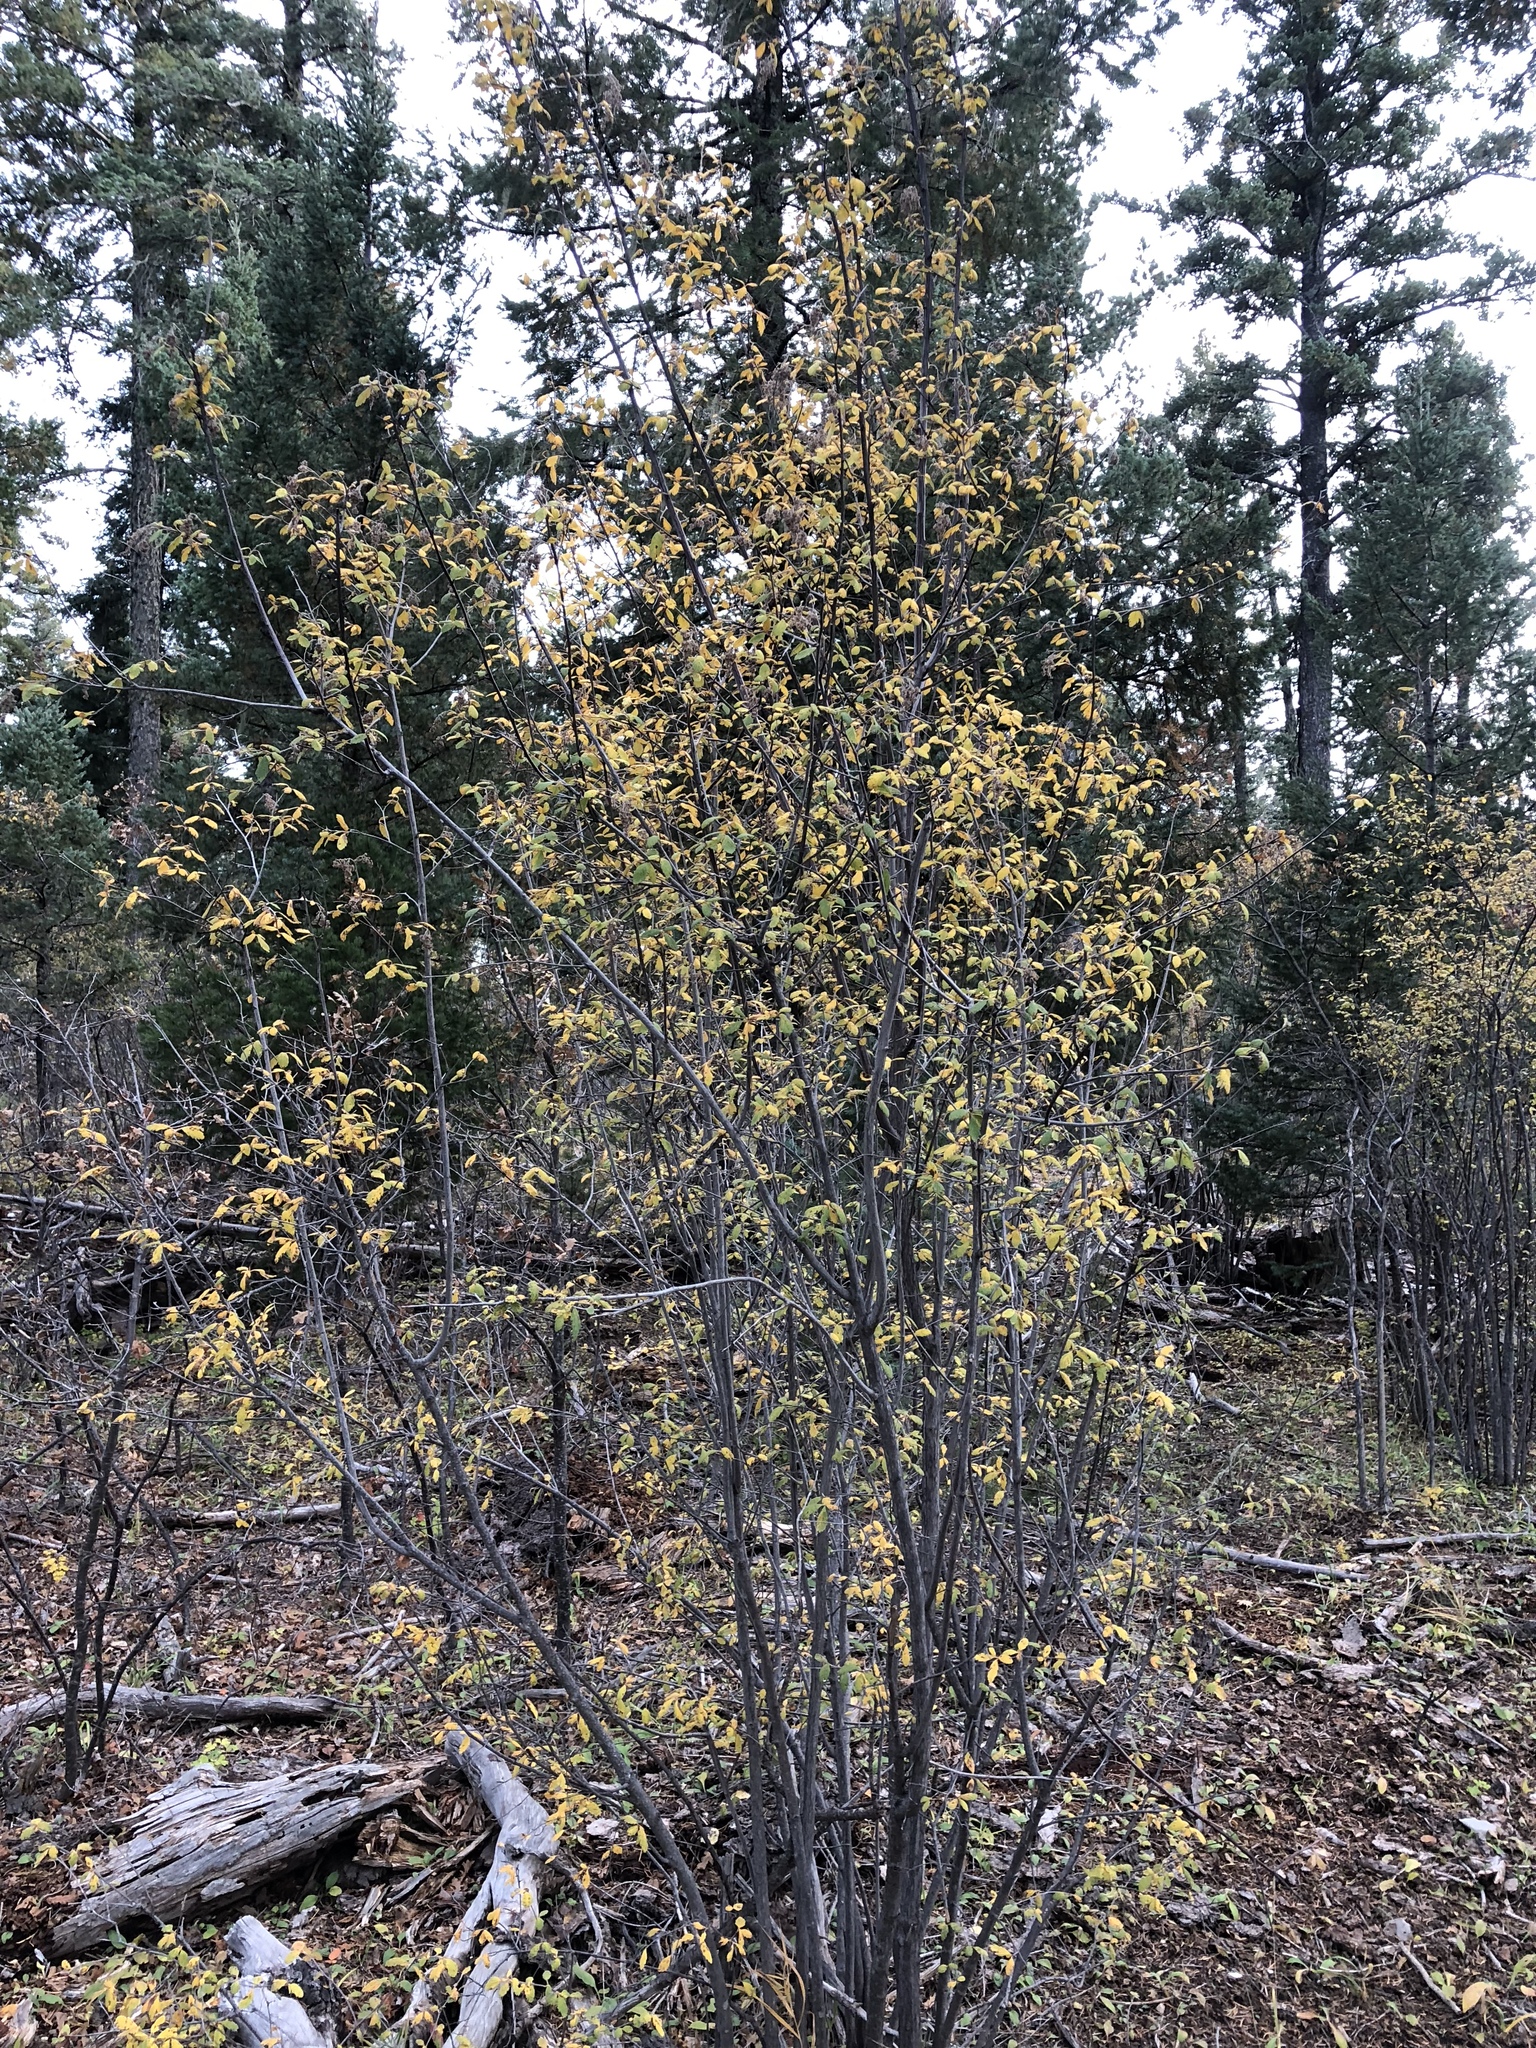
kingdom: Plantae
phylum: Tracheophyta
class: Magnoliopsida
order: Rosales
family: Rosaceae
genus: Prunus
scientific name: Prunus virginiana
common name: Chokecherry
